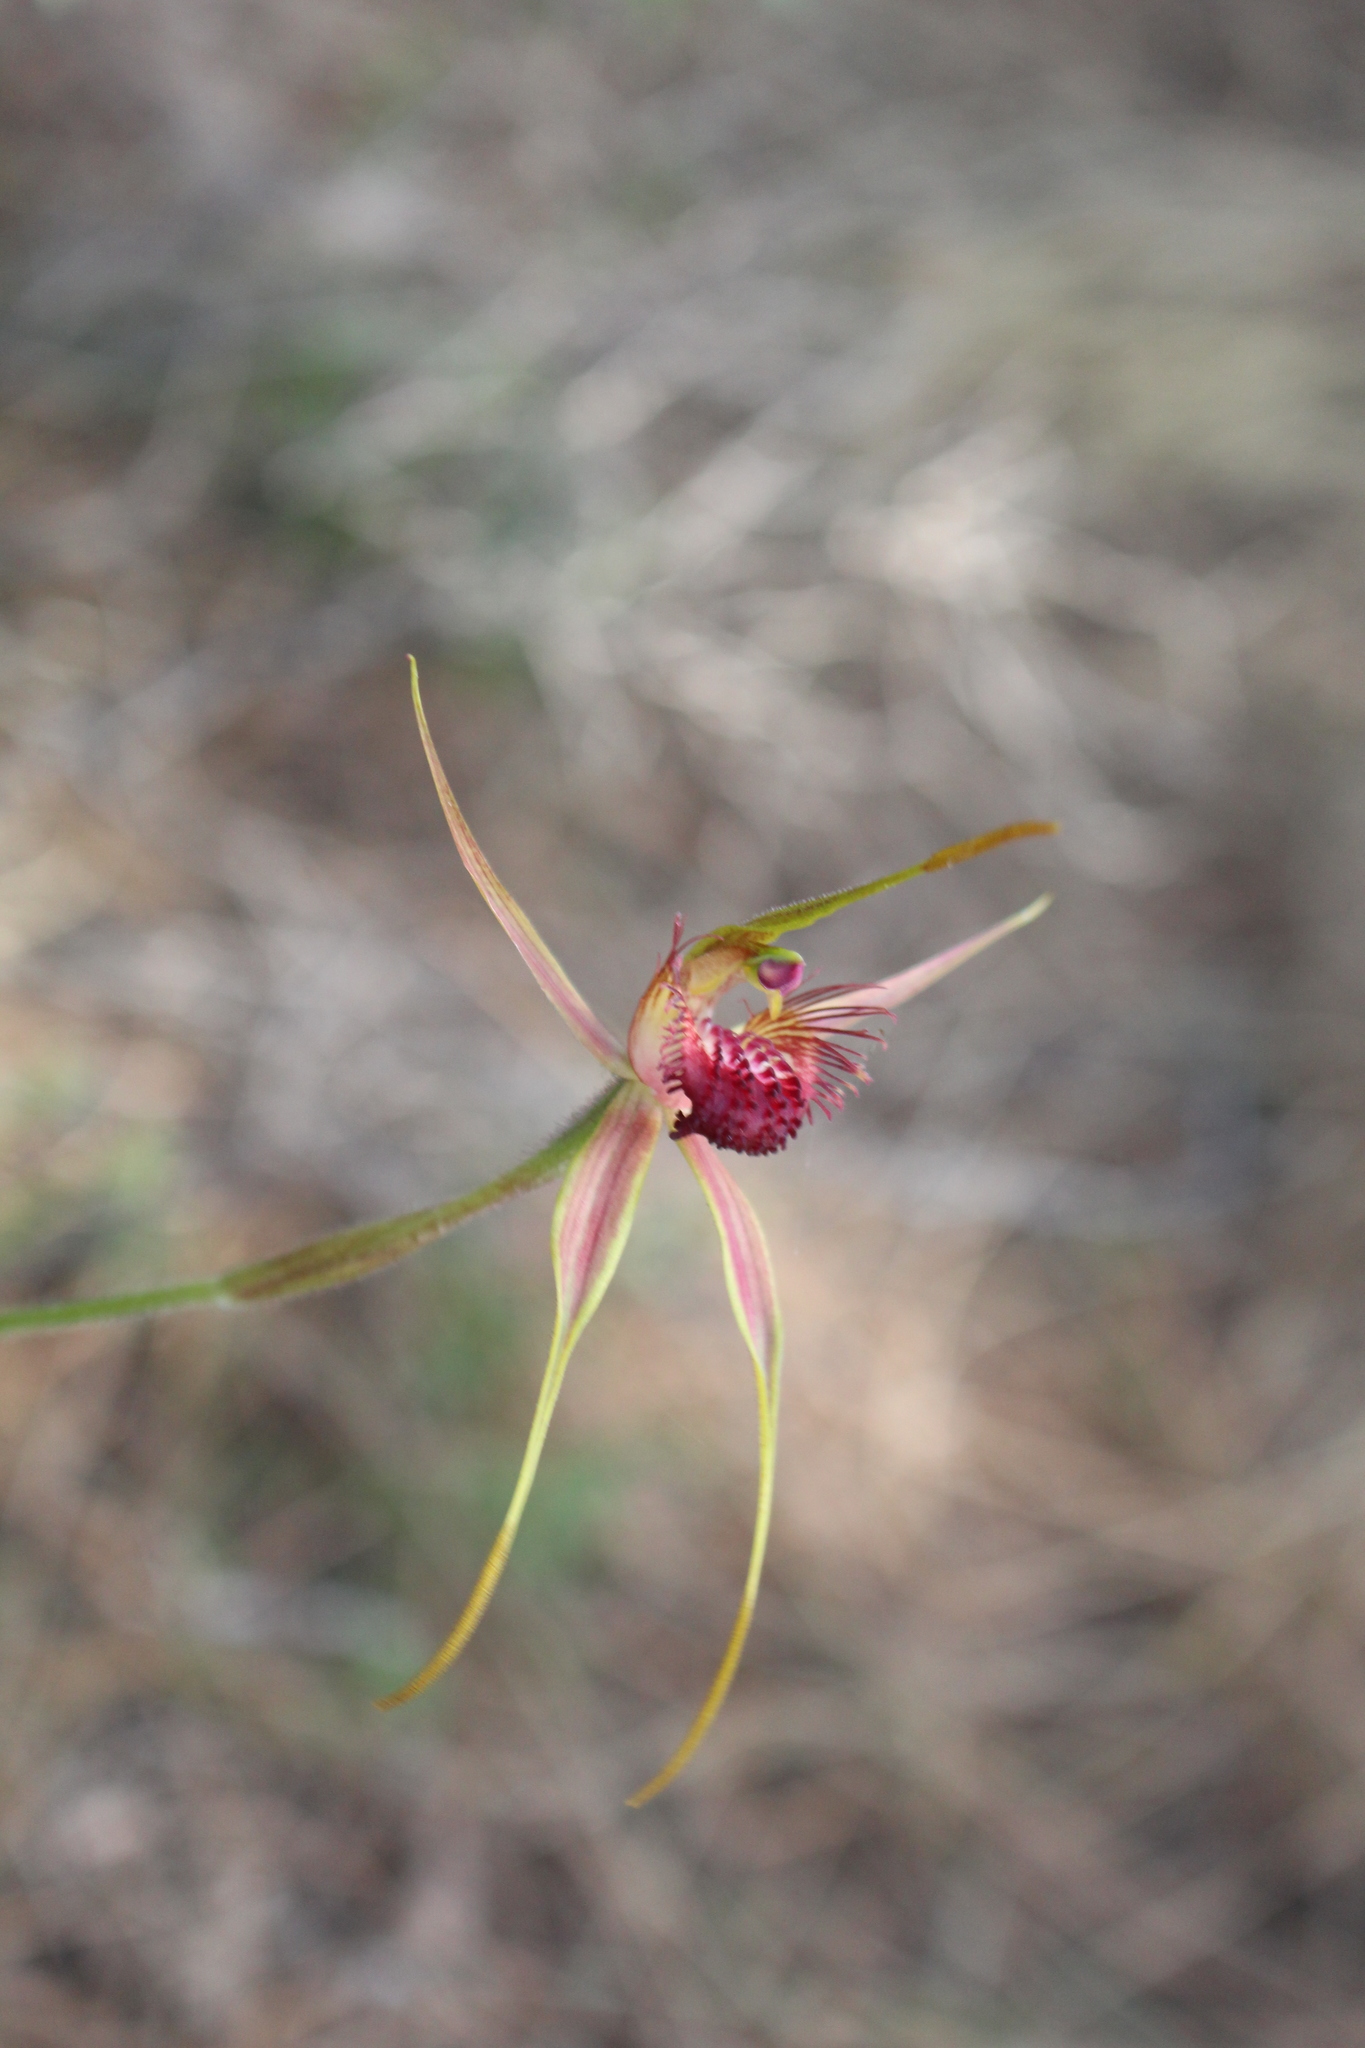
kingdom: Plantae
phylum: Tracheophyta
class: Liliopsida
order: Asparagales
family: Orchidaceae
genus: Caladenia
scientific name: Caladenia pectinata
